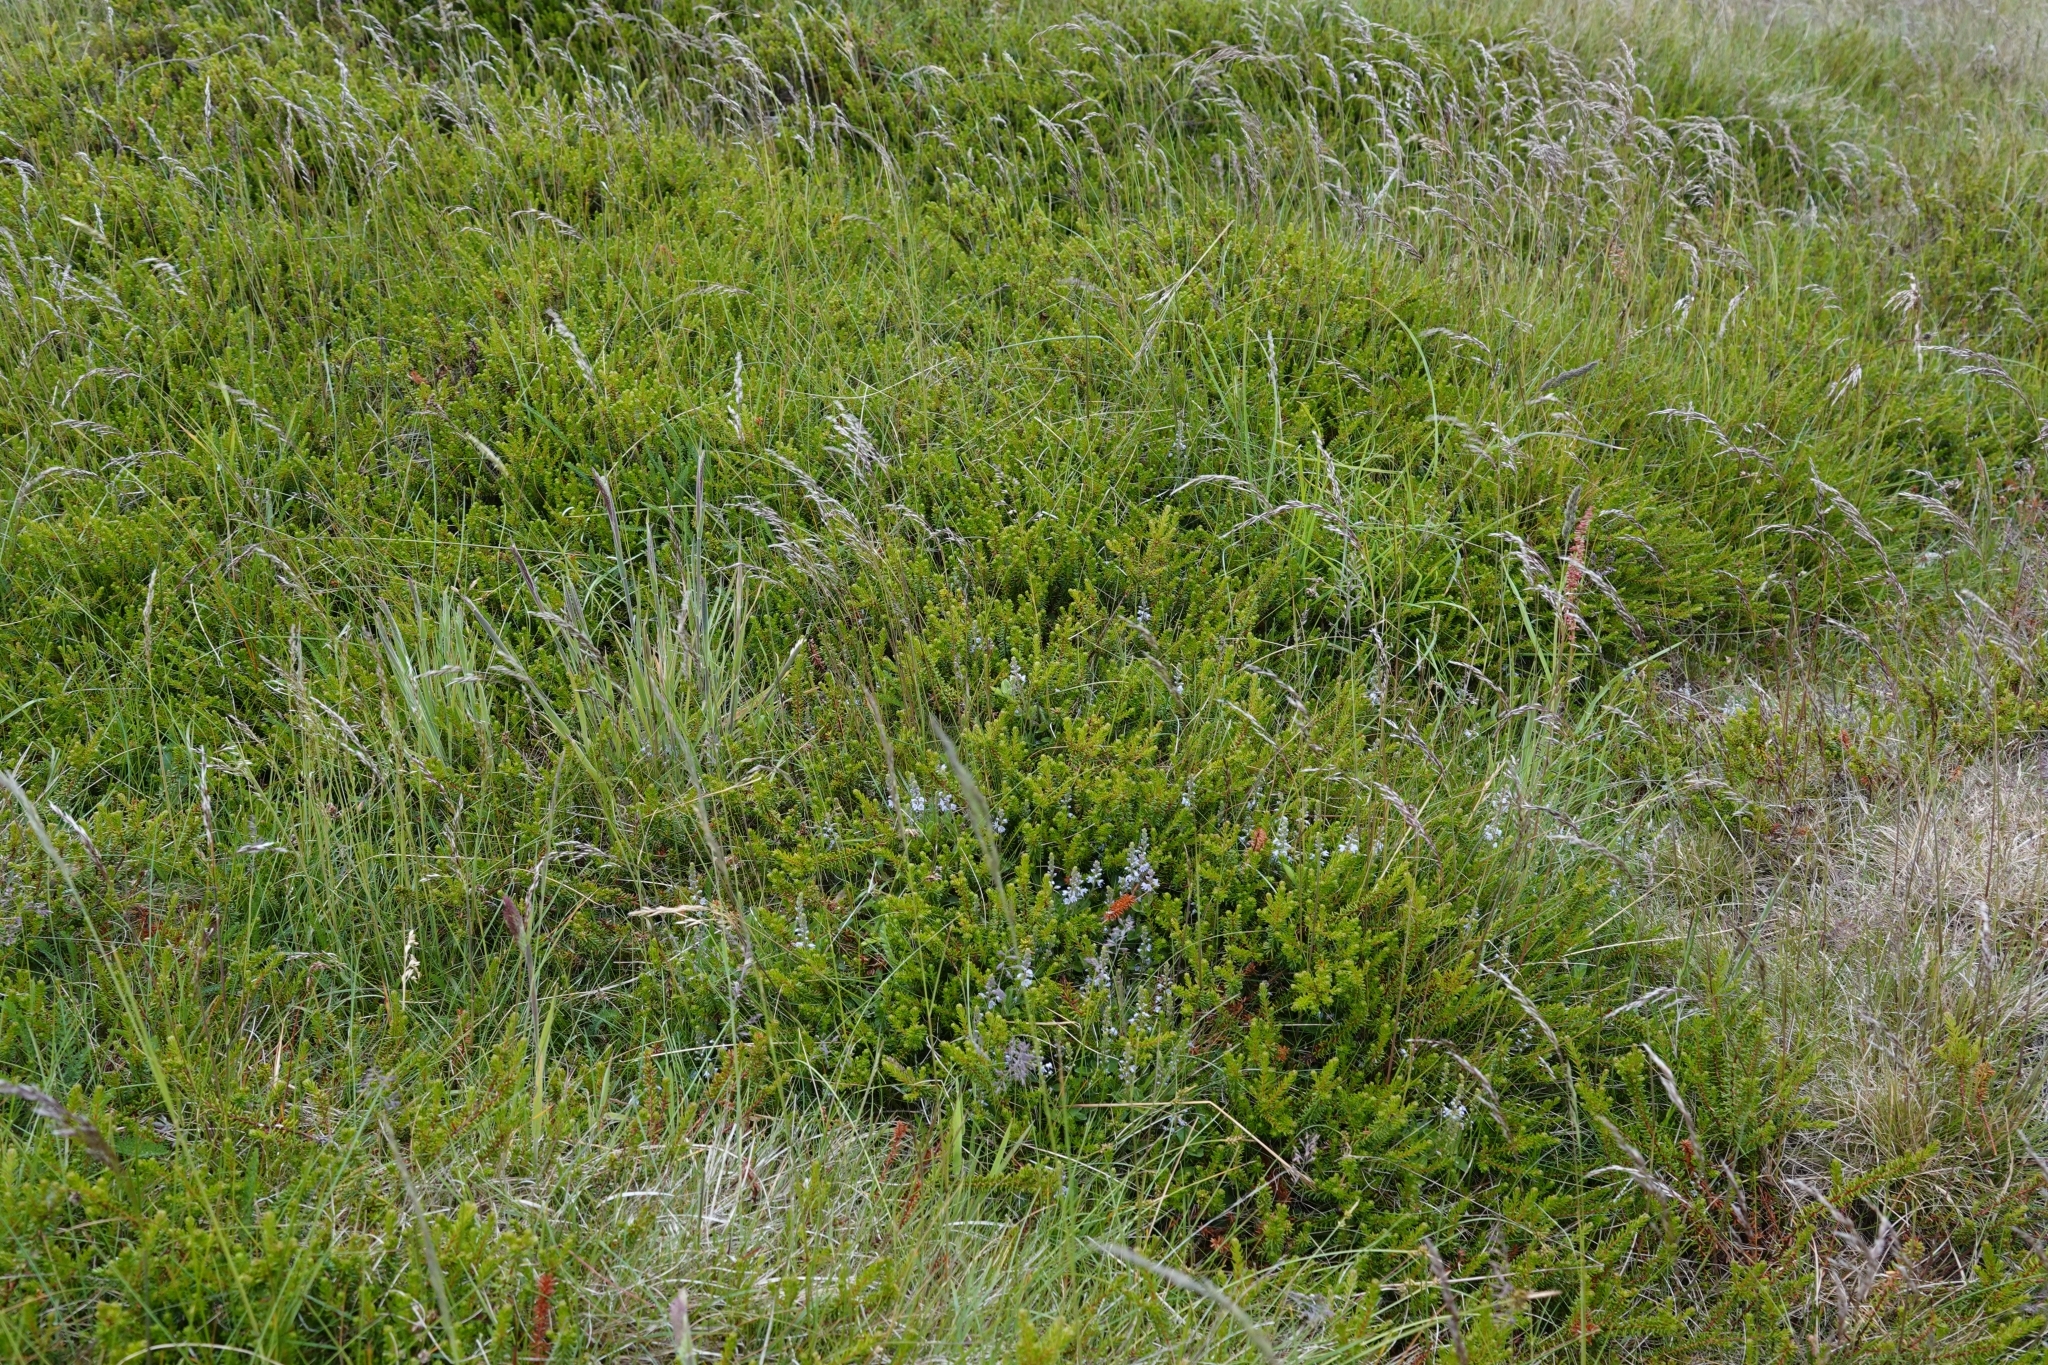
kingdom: Plantae
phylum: Tracheophyta
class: Magnoliopsida
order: Lamiales
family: Plantaginaceae
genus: Veronica
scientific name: Veronica officinalis
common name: Common speedwell
